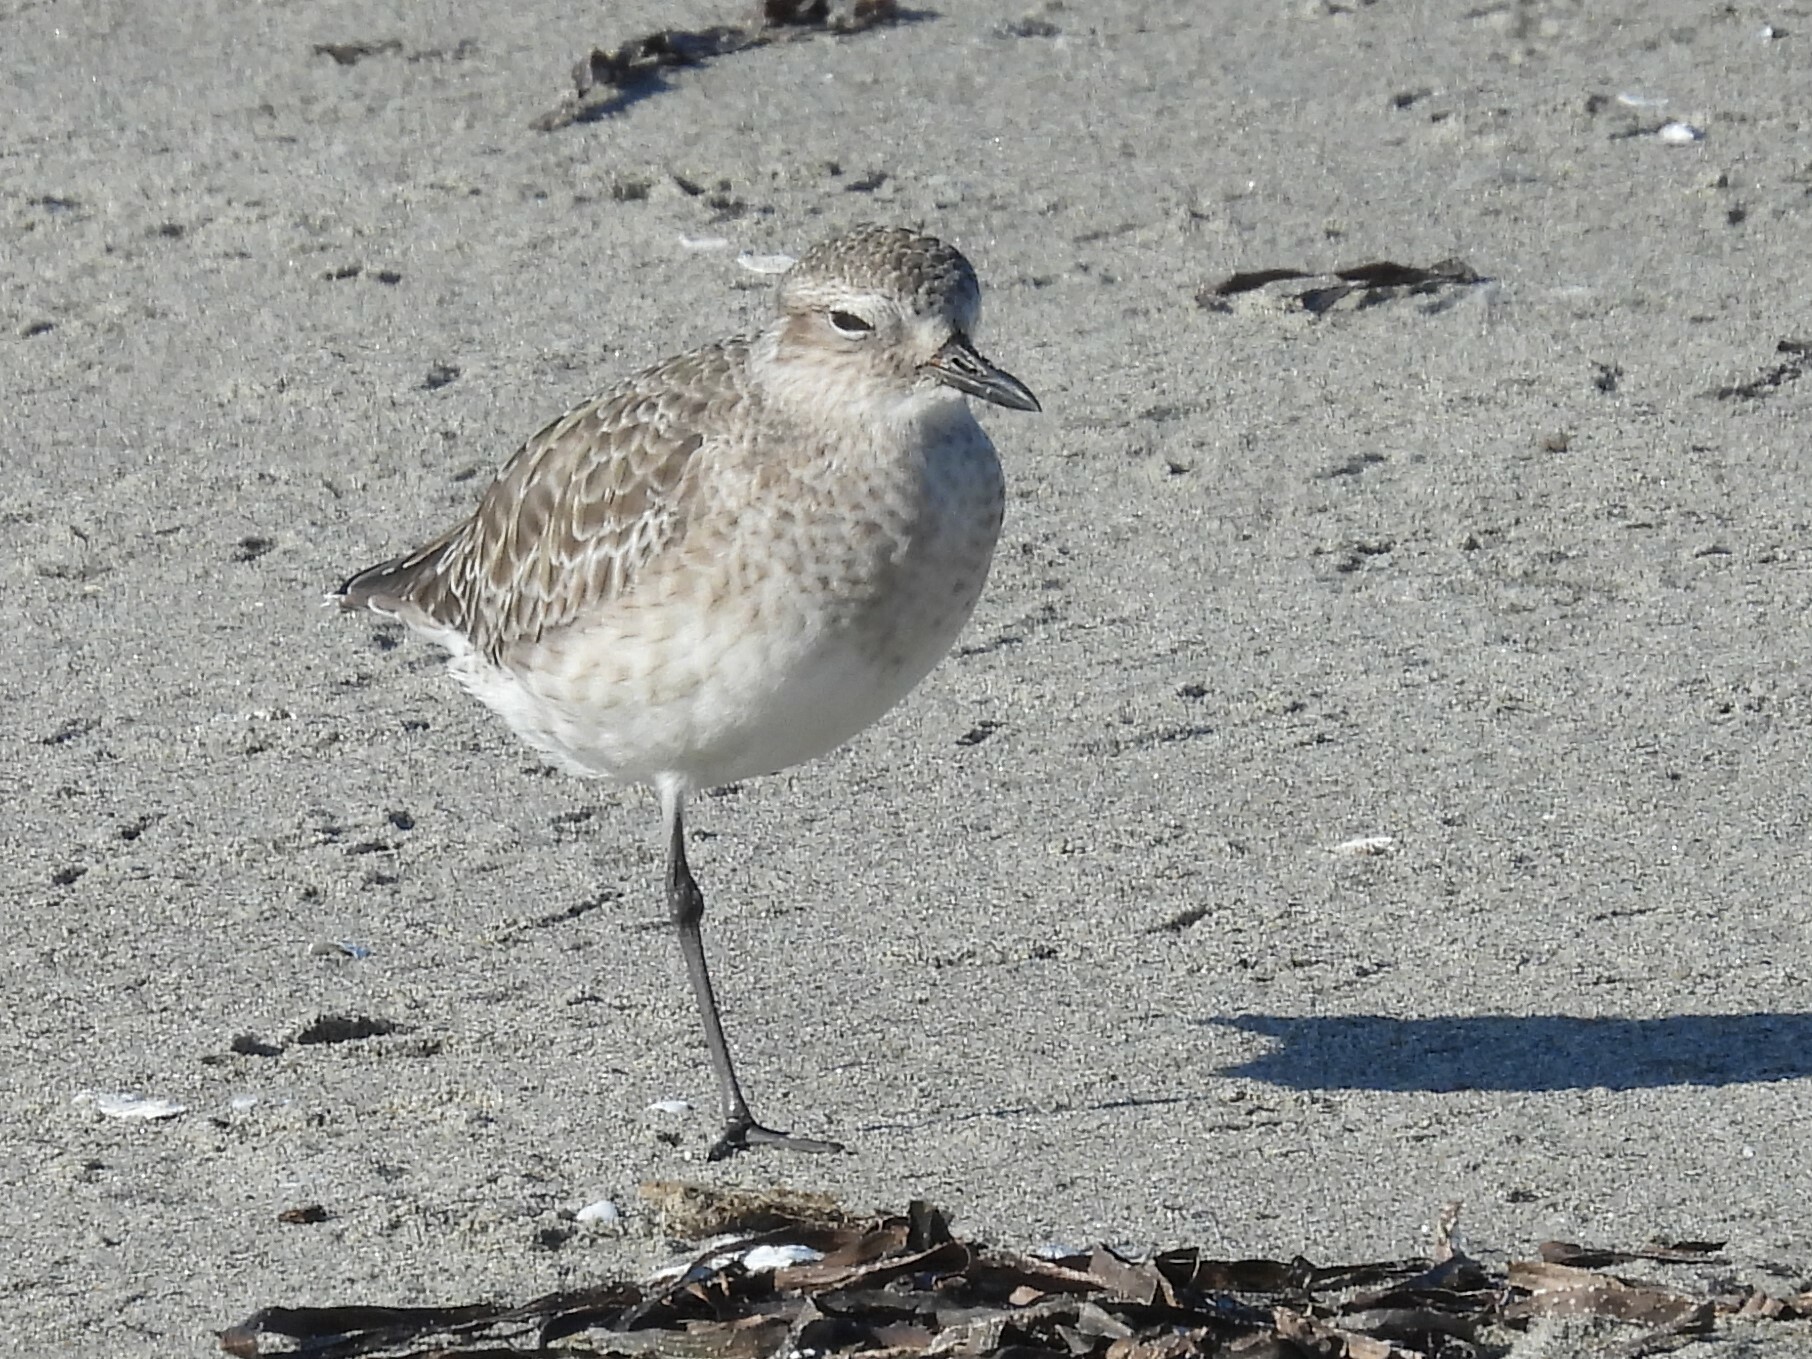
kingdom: Animalia
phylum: Chordata
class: Aves
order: Charadriiformes
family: Charadriidae
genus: Pluvialis
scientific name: Pluvialis squatarola
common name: Grey plover
